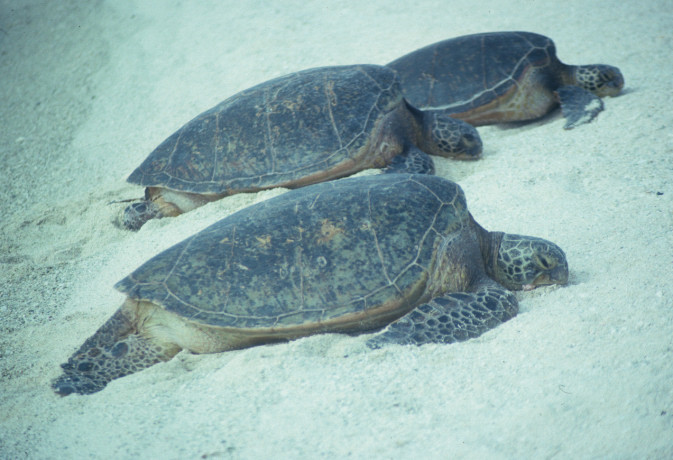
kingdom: Animalia
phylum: Chordata
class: Testudines
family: Cheloniidae
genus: Chelonia
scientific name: Chelonia mydas
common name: Green turtle
